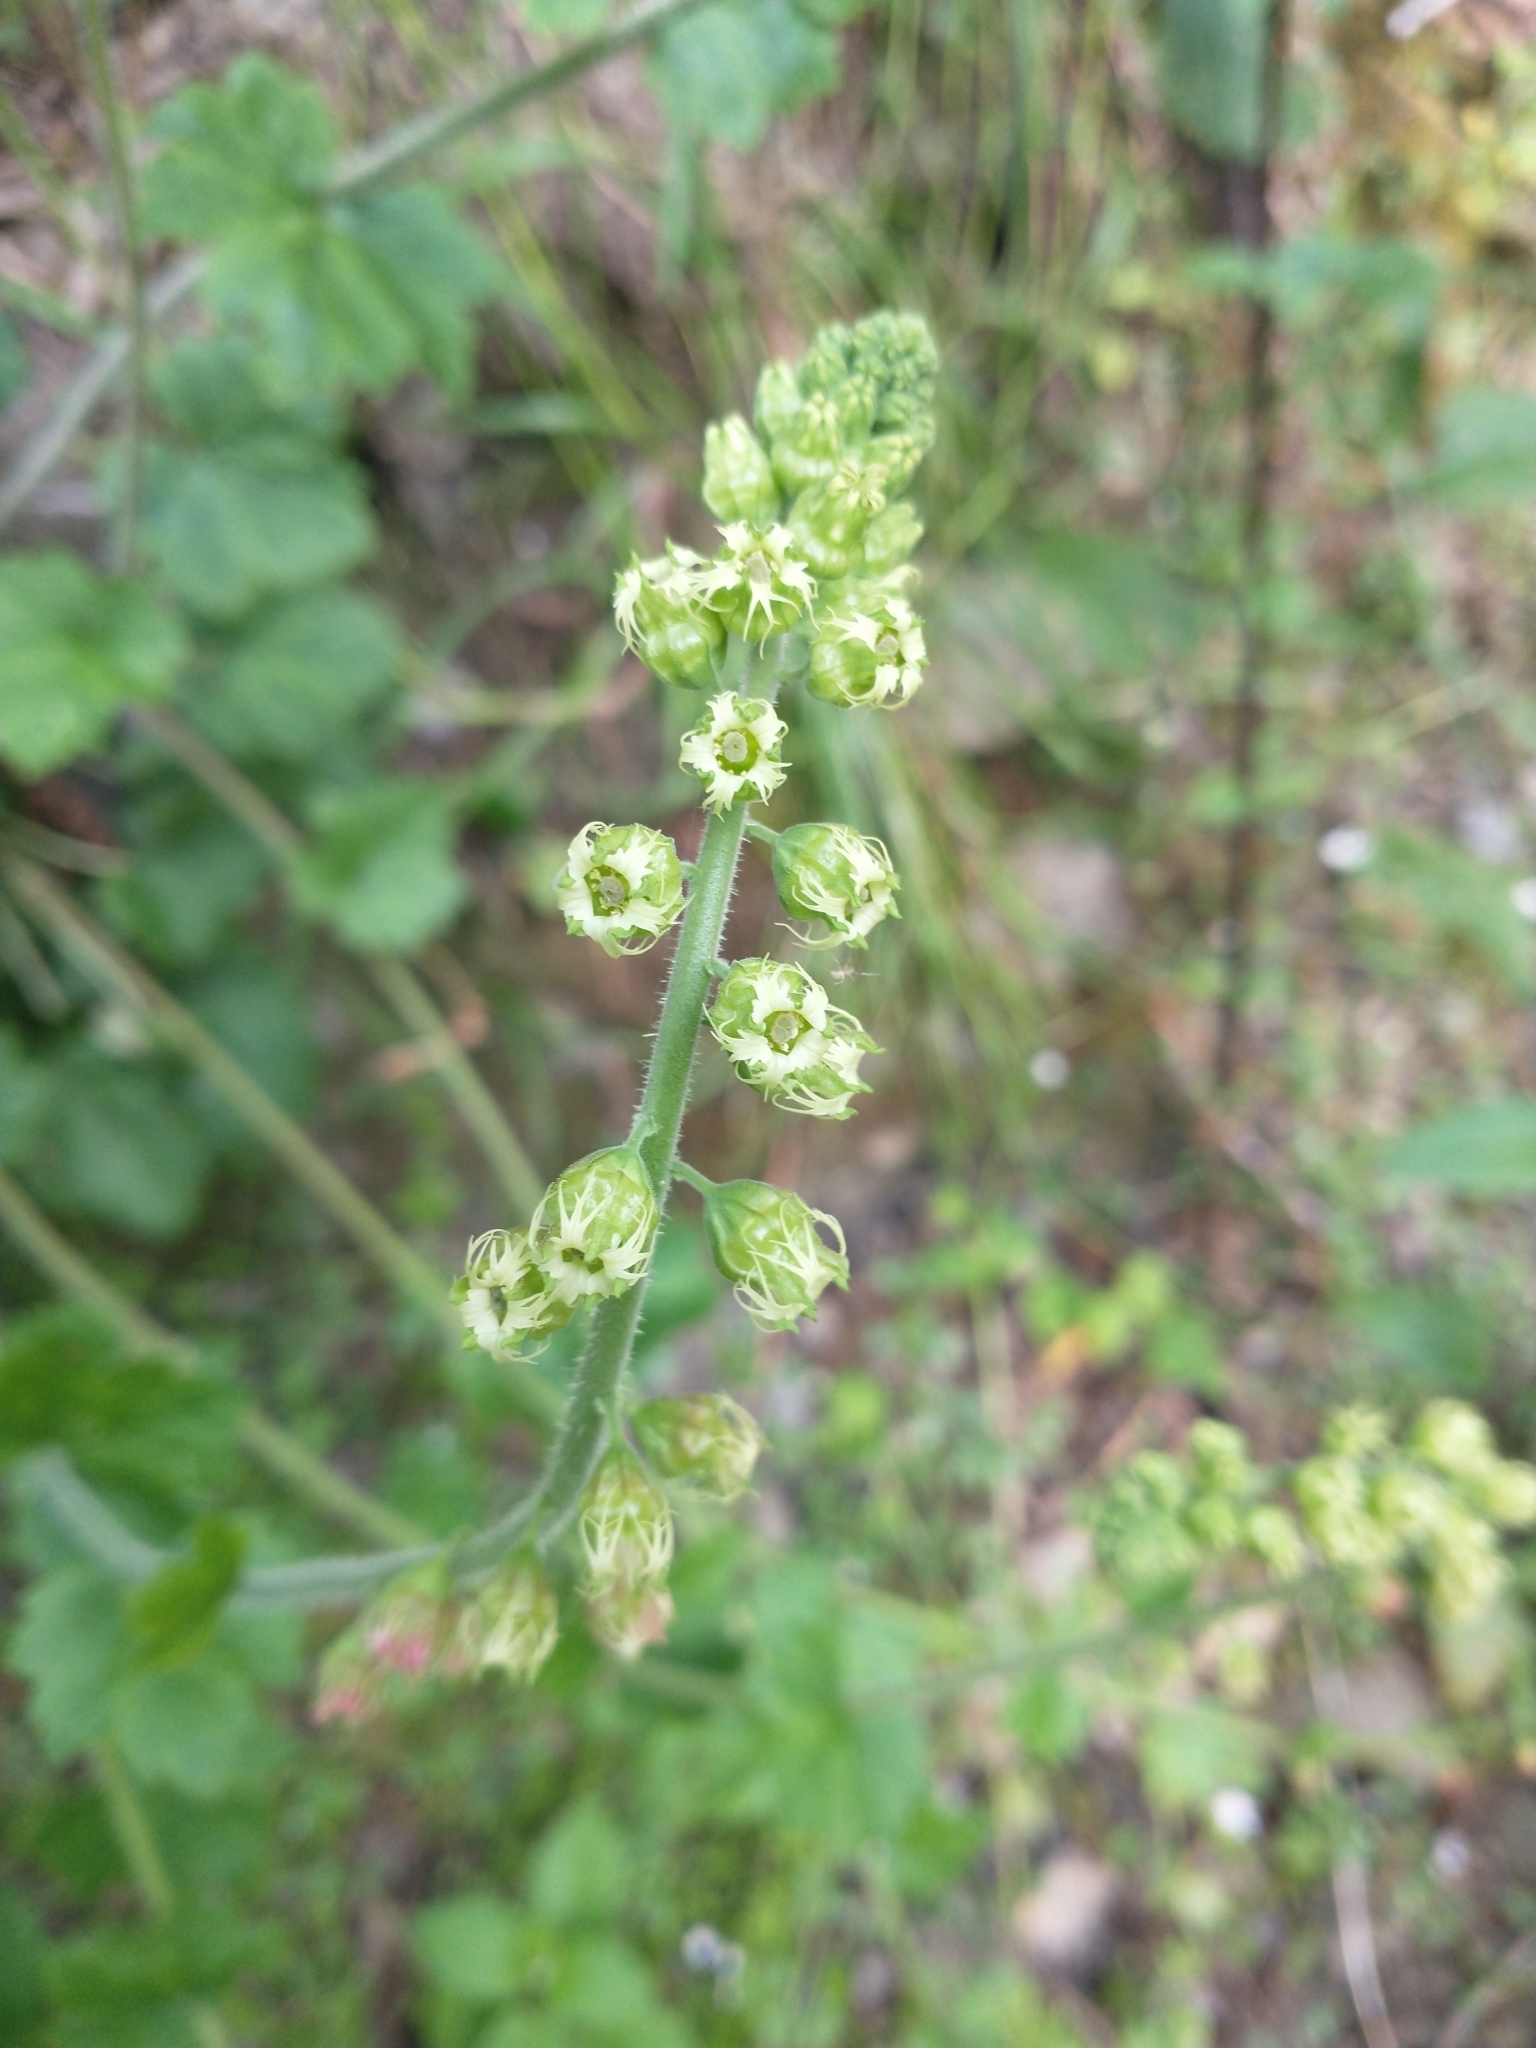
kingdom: Plantae
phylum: Tracheophyta
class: Magnoliopsida
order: Saxifragales
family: Saxifragaceae
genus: Tellima
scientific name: Tellima grandiflora
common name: Fringecups
